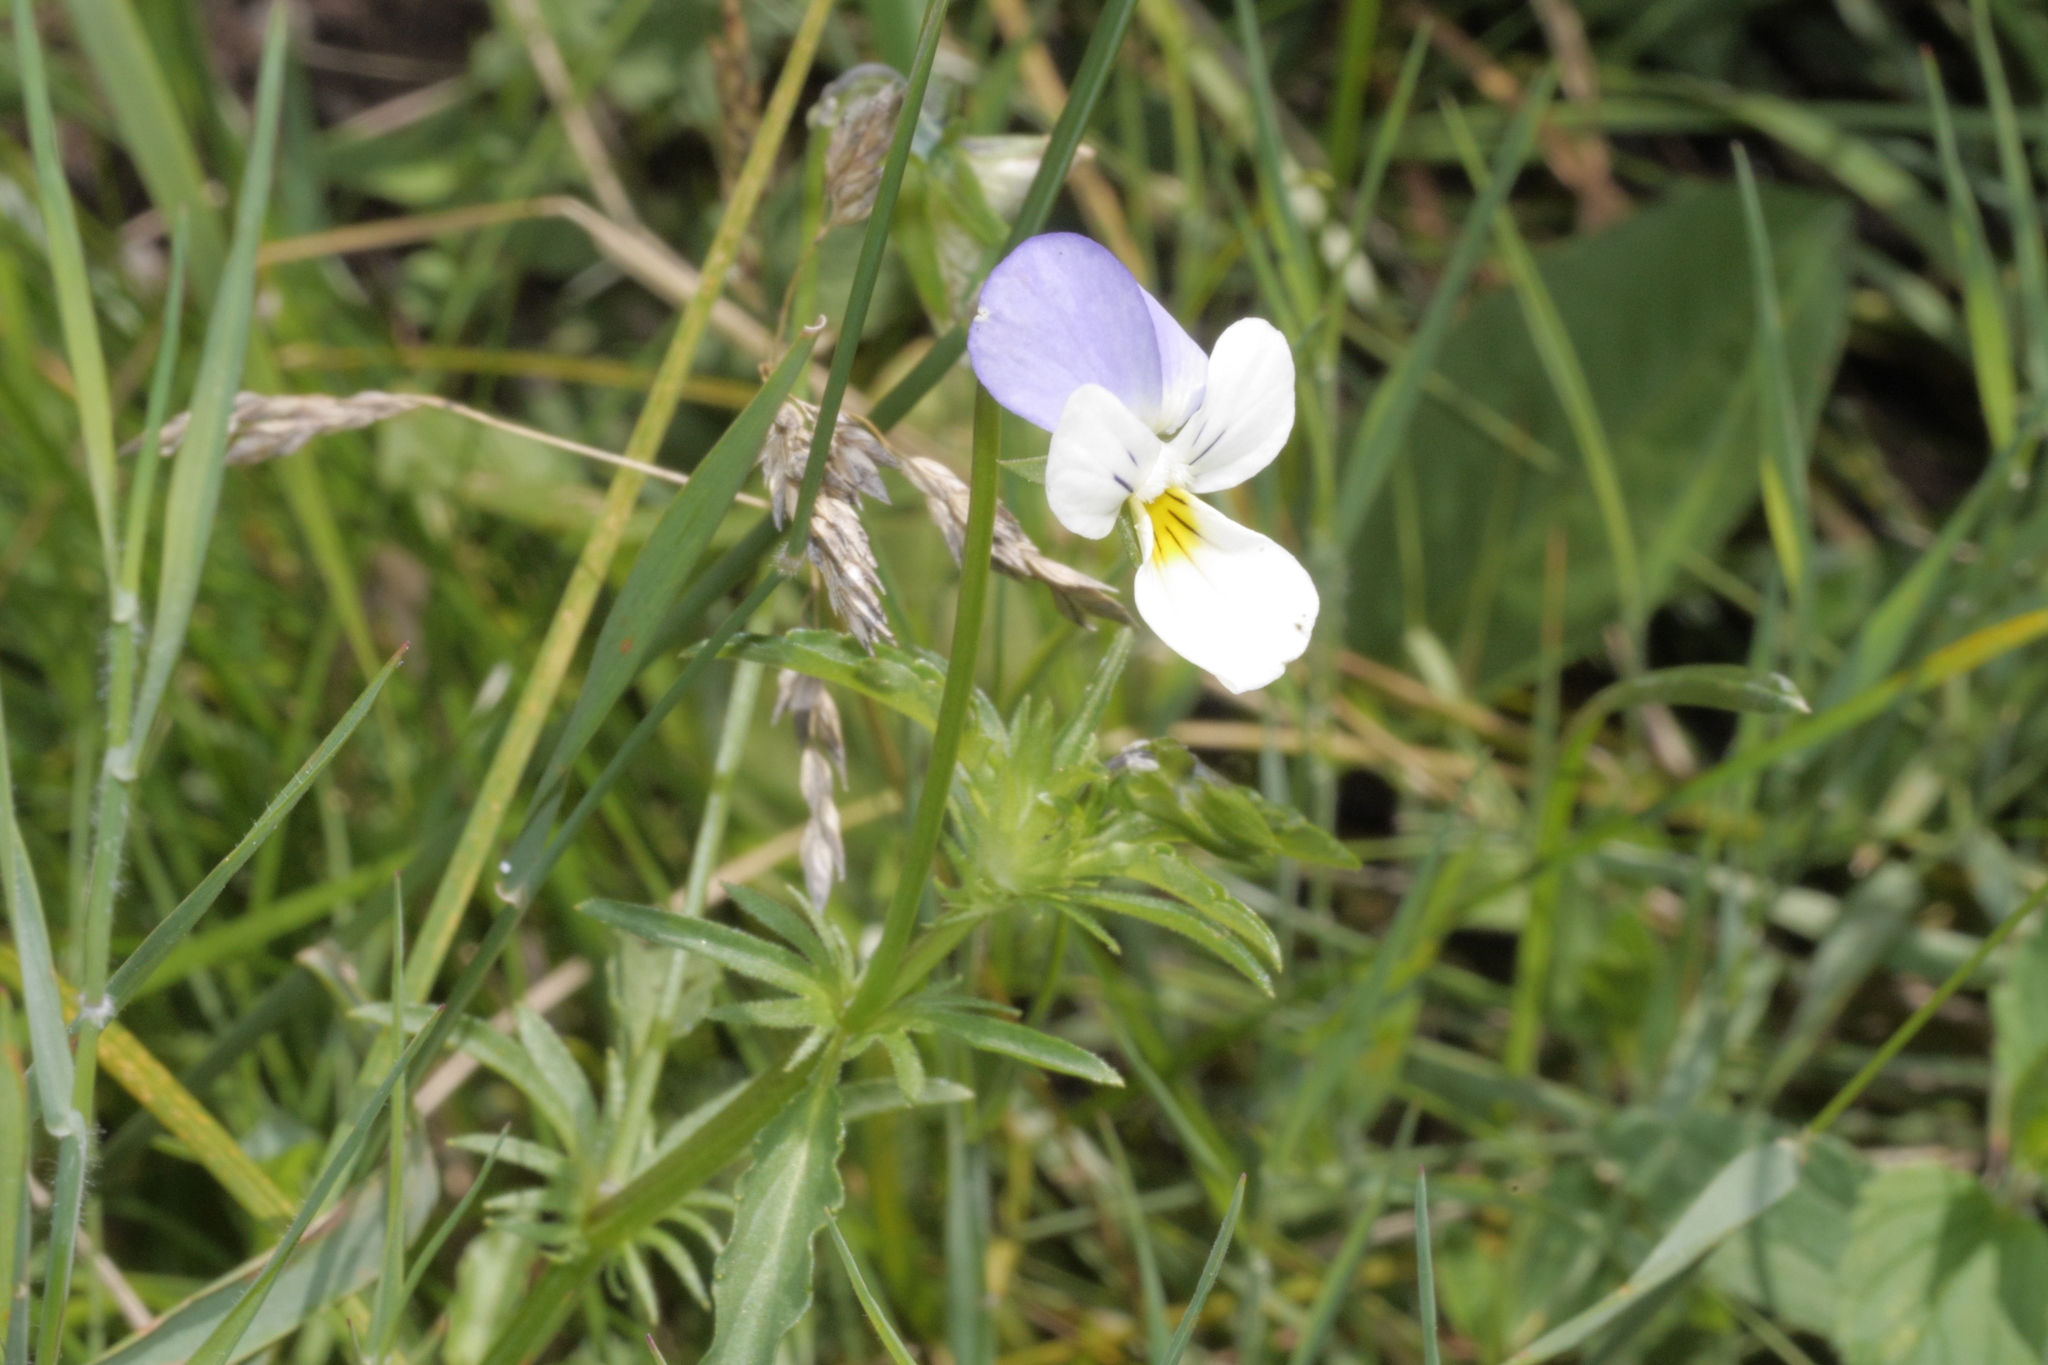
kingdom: Plantae
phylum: Tracheophyta
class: Magnoliopsida
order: Malpighiales
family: Violaceae
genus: Viola
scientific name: Viola tricolor
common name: Pansy
